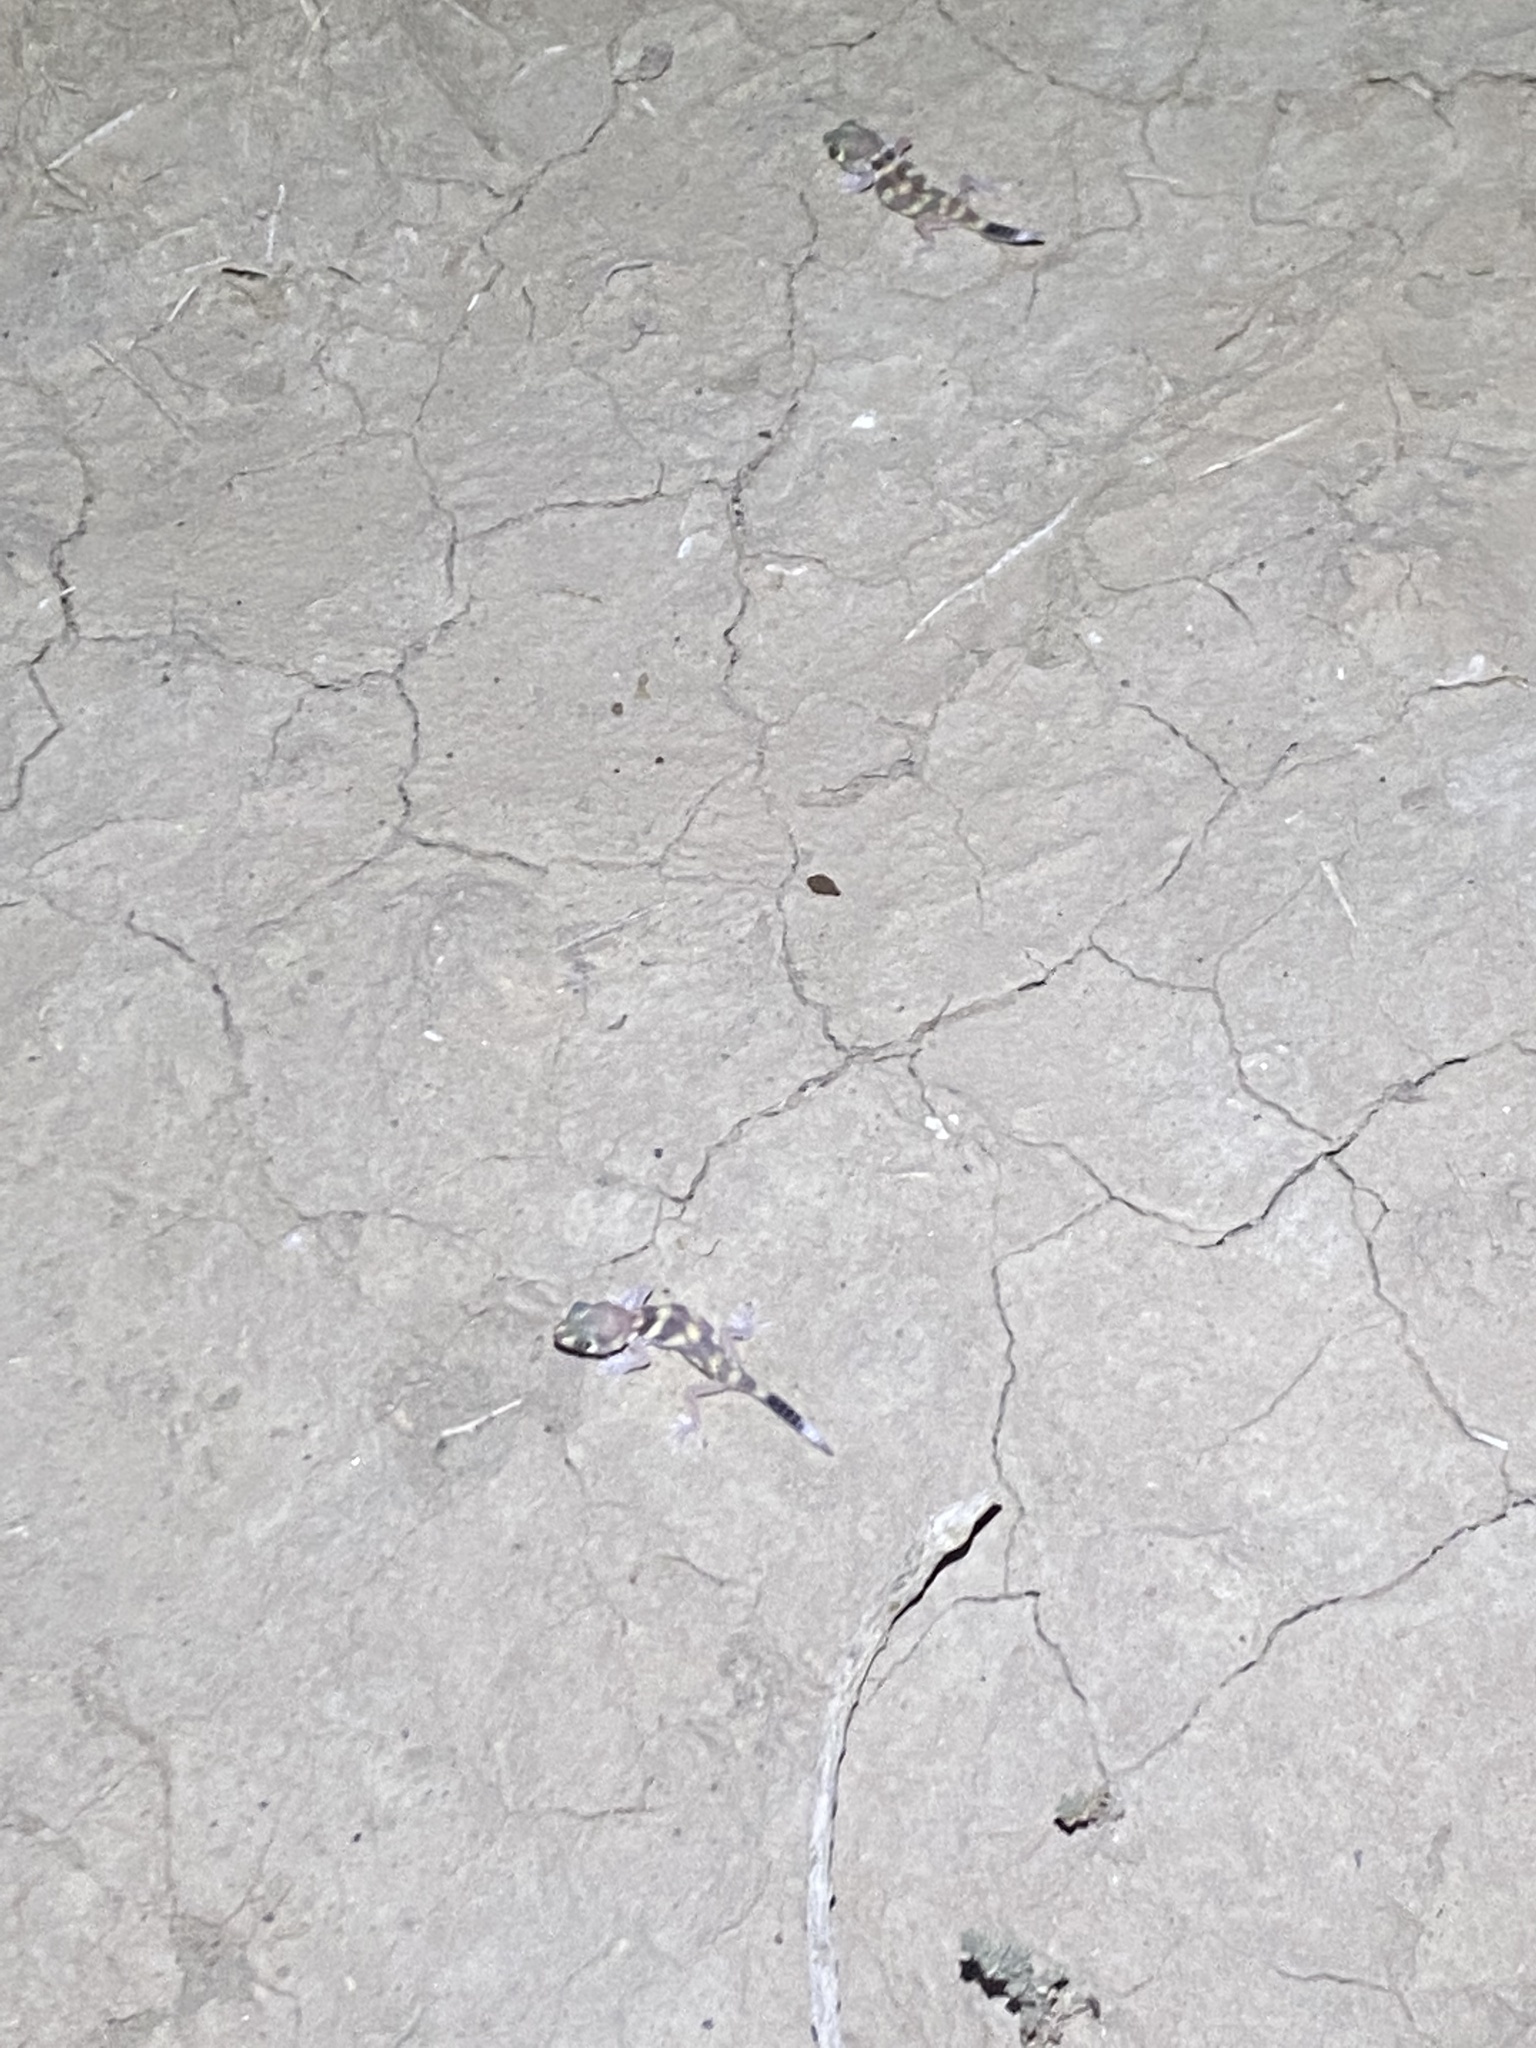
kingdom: Animalia
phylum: Chordata
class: Squamata
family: Sphaerodactylidae
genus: Teratoscincus
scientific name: Teratoscincus bedriagai
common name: Bedriaga's plate-tailed gecko
